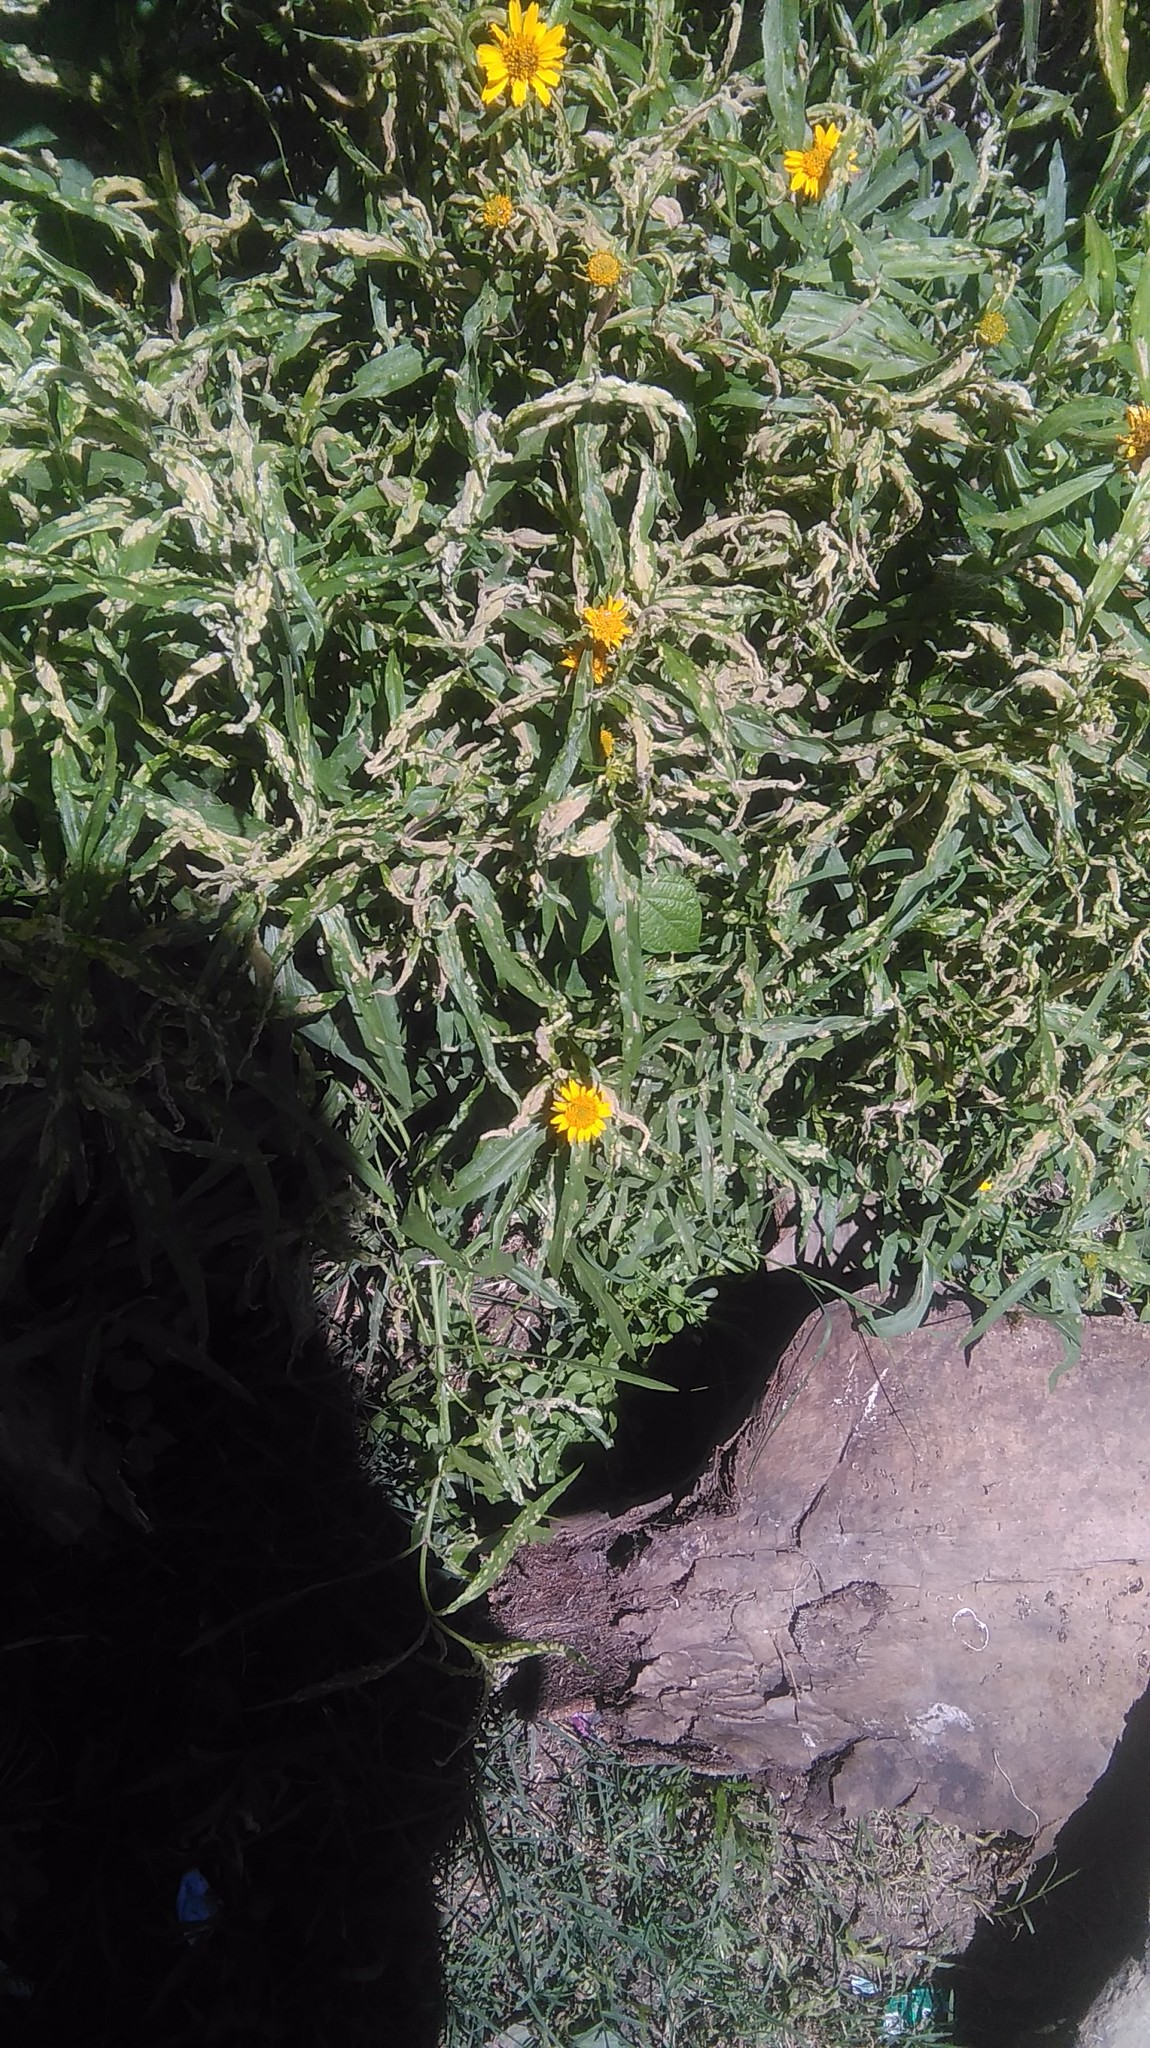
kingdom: Plantae
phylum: Tracheophyta
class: Magnoliopsida
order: Asterales
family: Asteraceae
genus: Pascalia
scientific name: Pascalia glauca
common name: Beach creeping oxeye
